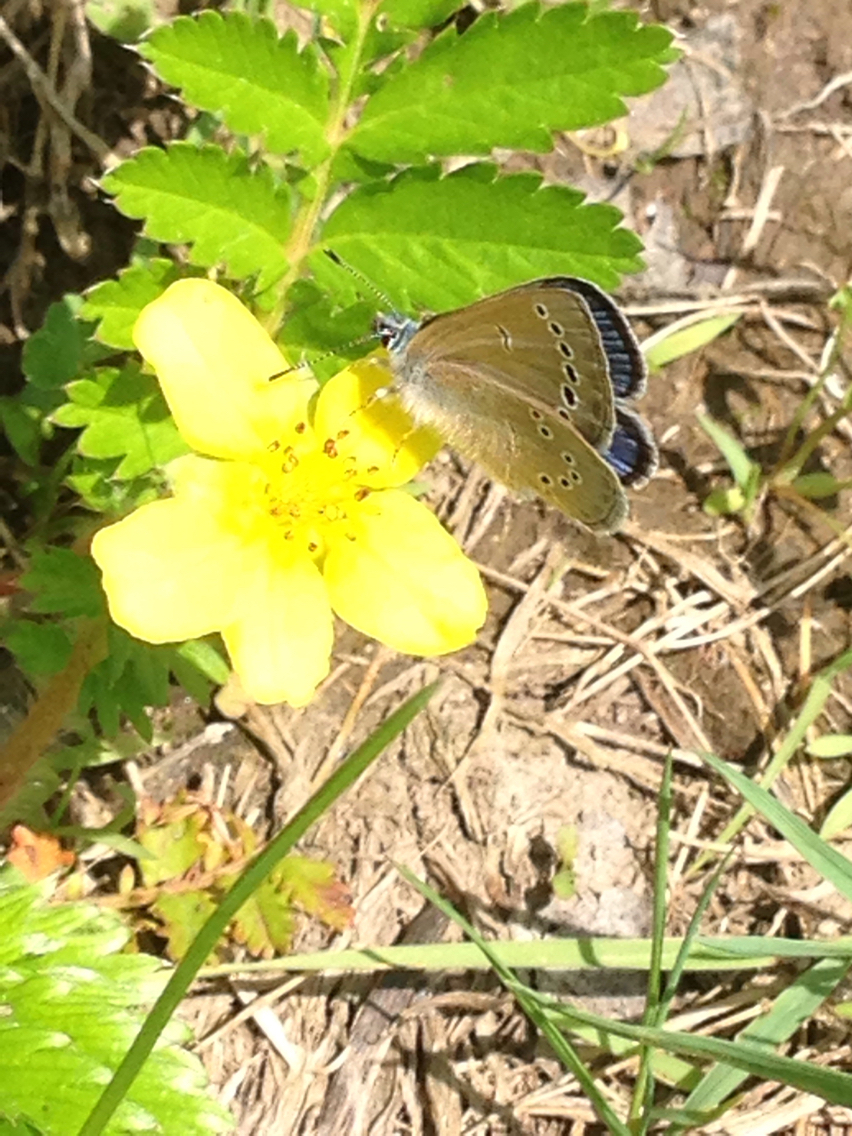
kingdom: Animalia
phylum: Arthropoda
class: Insecta
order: Lepidoptera
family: Lycaenidae
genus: Glaucopsyche
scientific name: Glaucopsyche lygdamus
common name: Silvery blue
